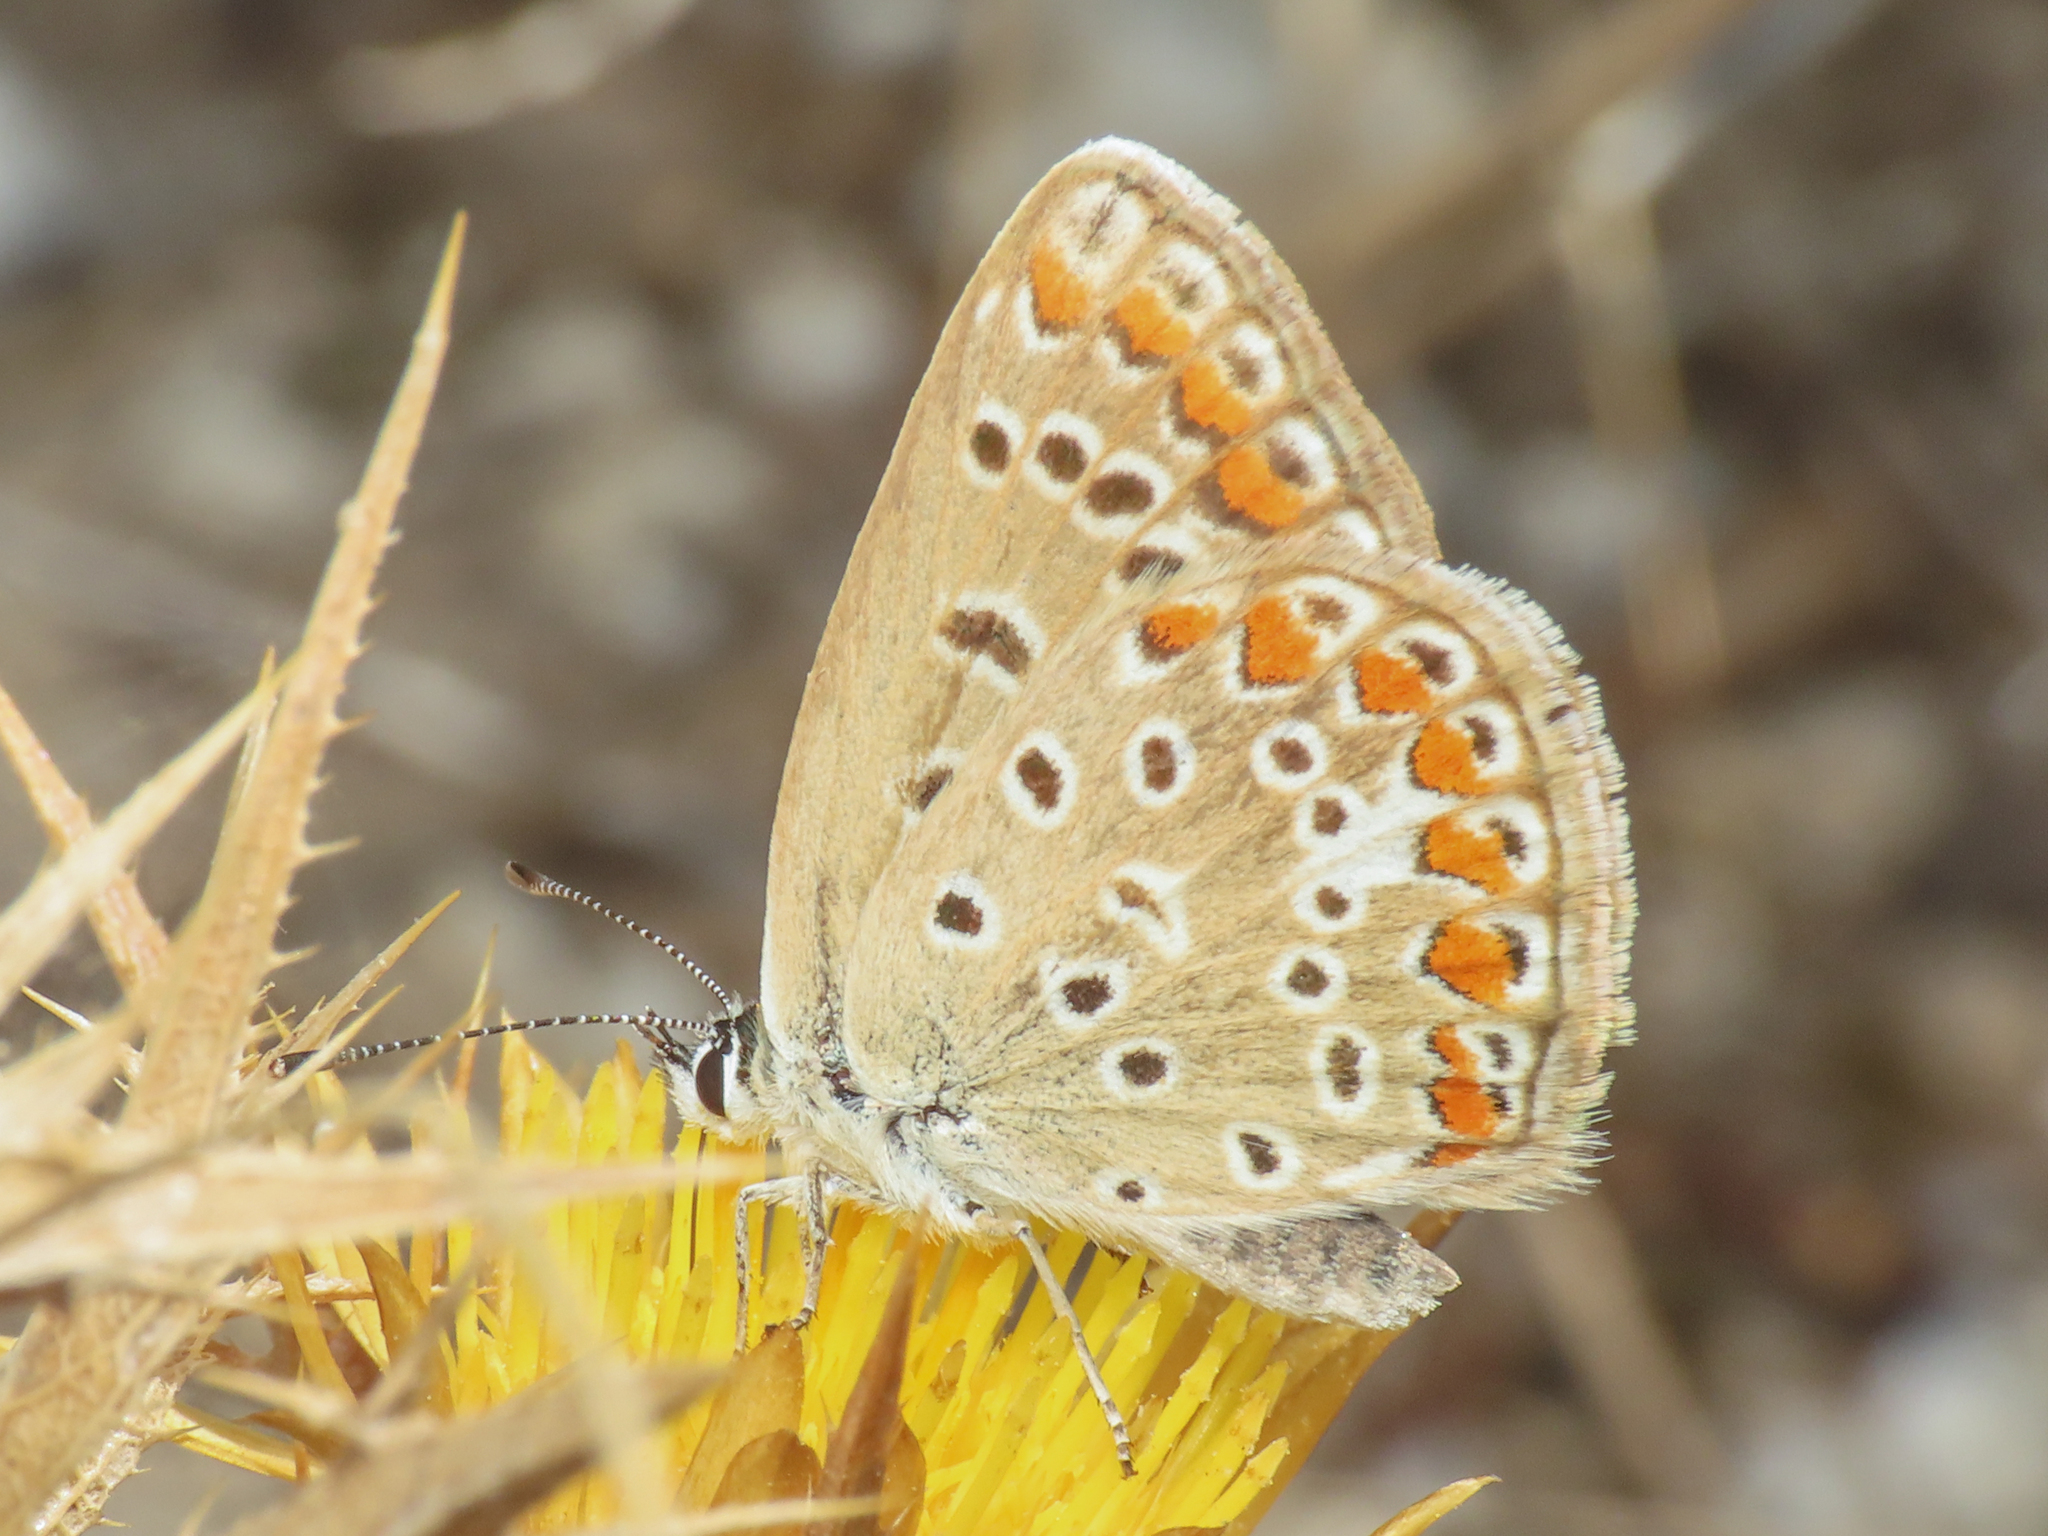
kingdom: Animalia
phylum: Arthropoda
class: Insecta
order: Lepidoptera
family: Lycaenidae
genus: Polyommatus
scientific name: Polyommatus icarus
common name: Common blue
